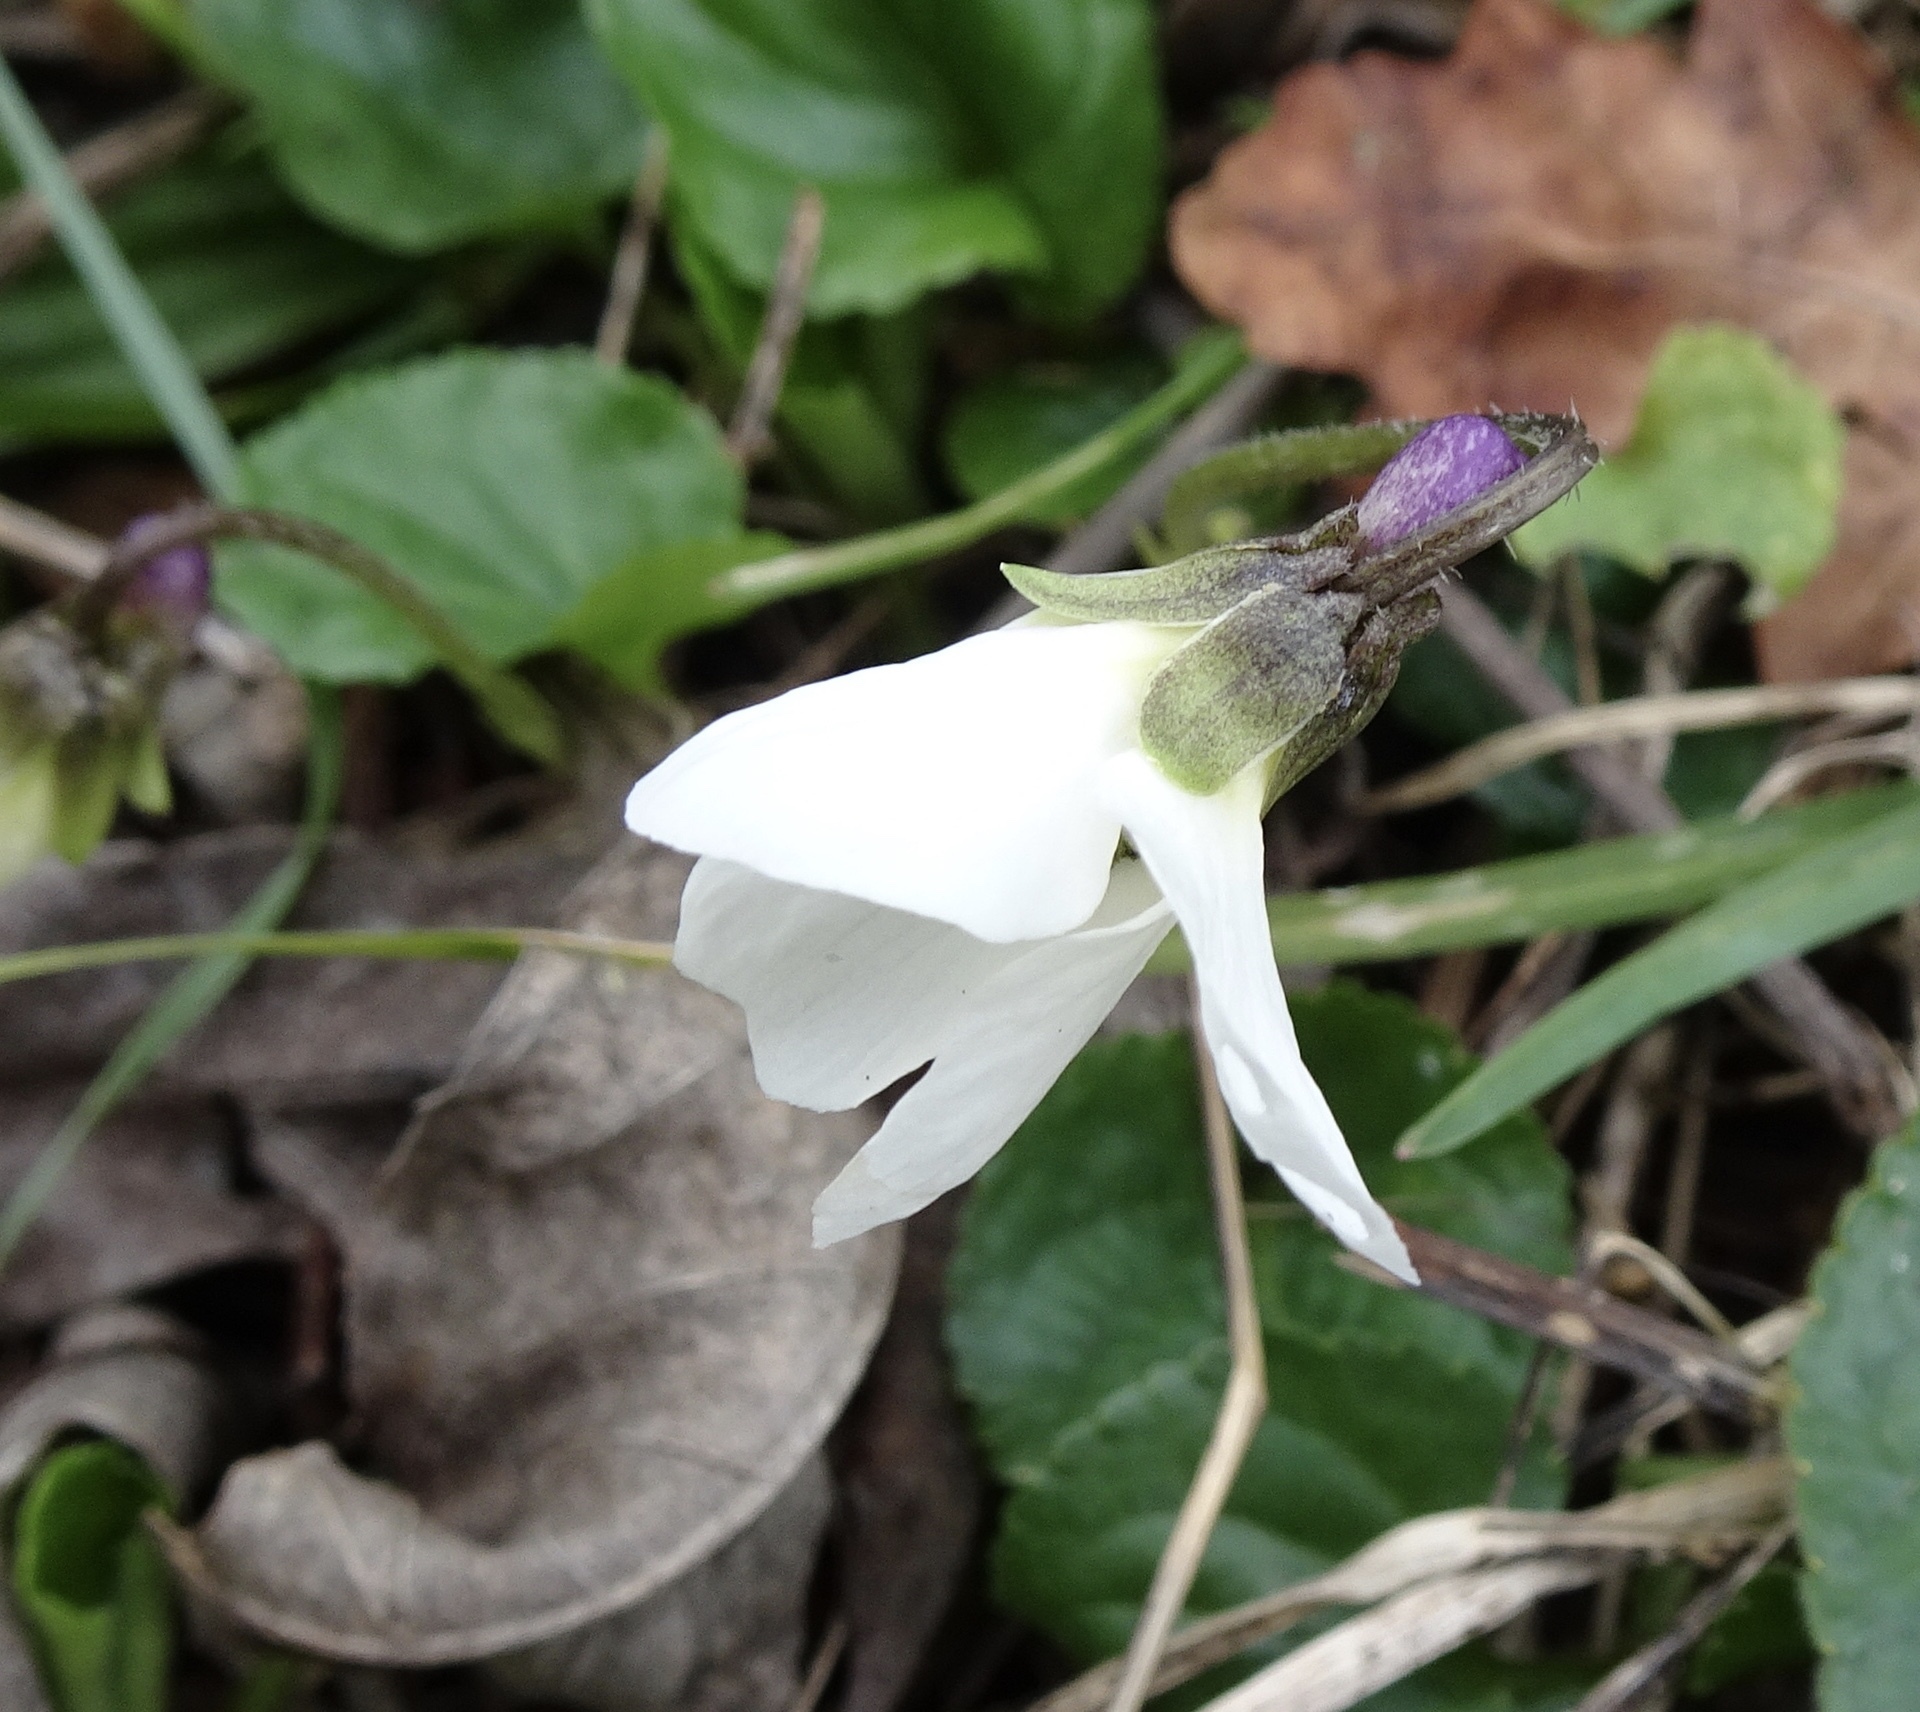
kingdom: Plantae
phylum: Tracheophyta
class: Magnoliopsida
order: Malpighiales
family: Violaceae
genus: Viola
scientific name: Viola odorata
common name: Sweet violet
